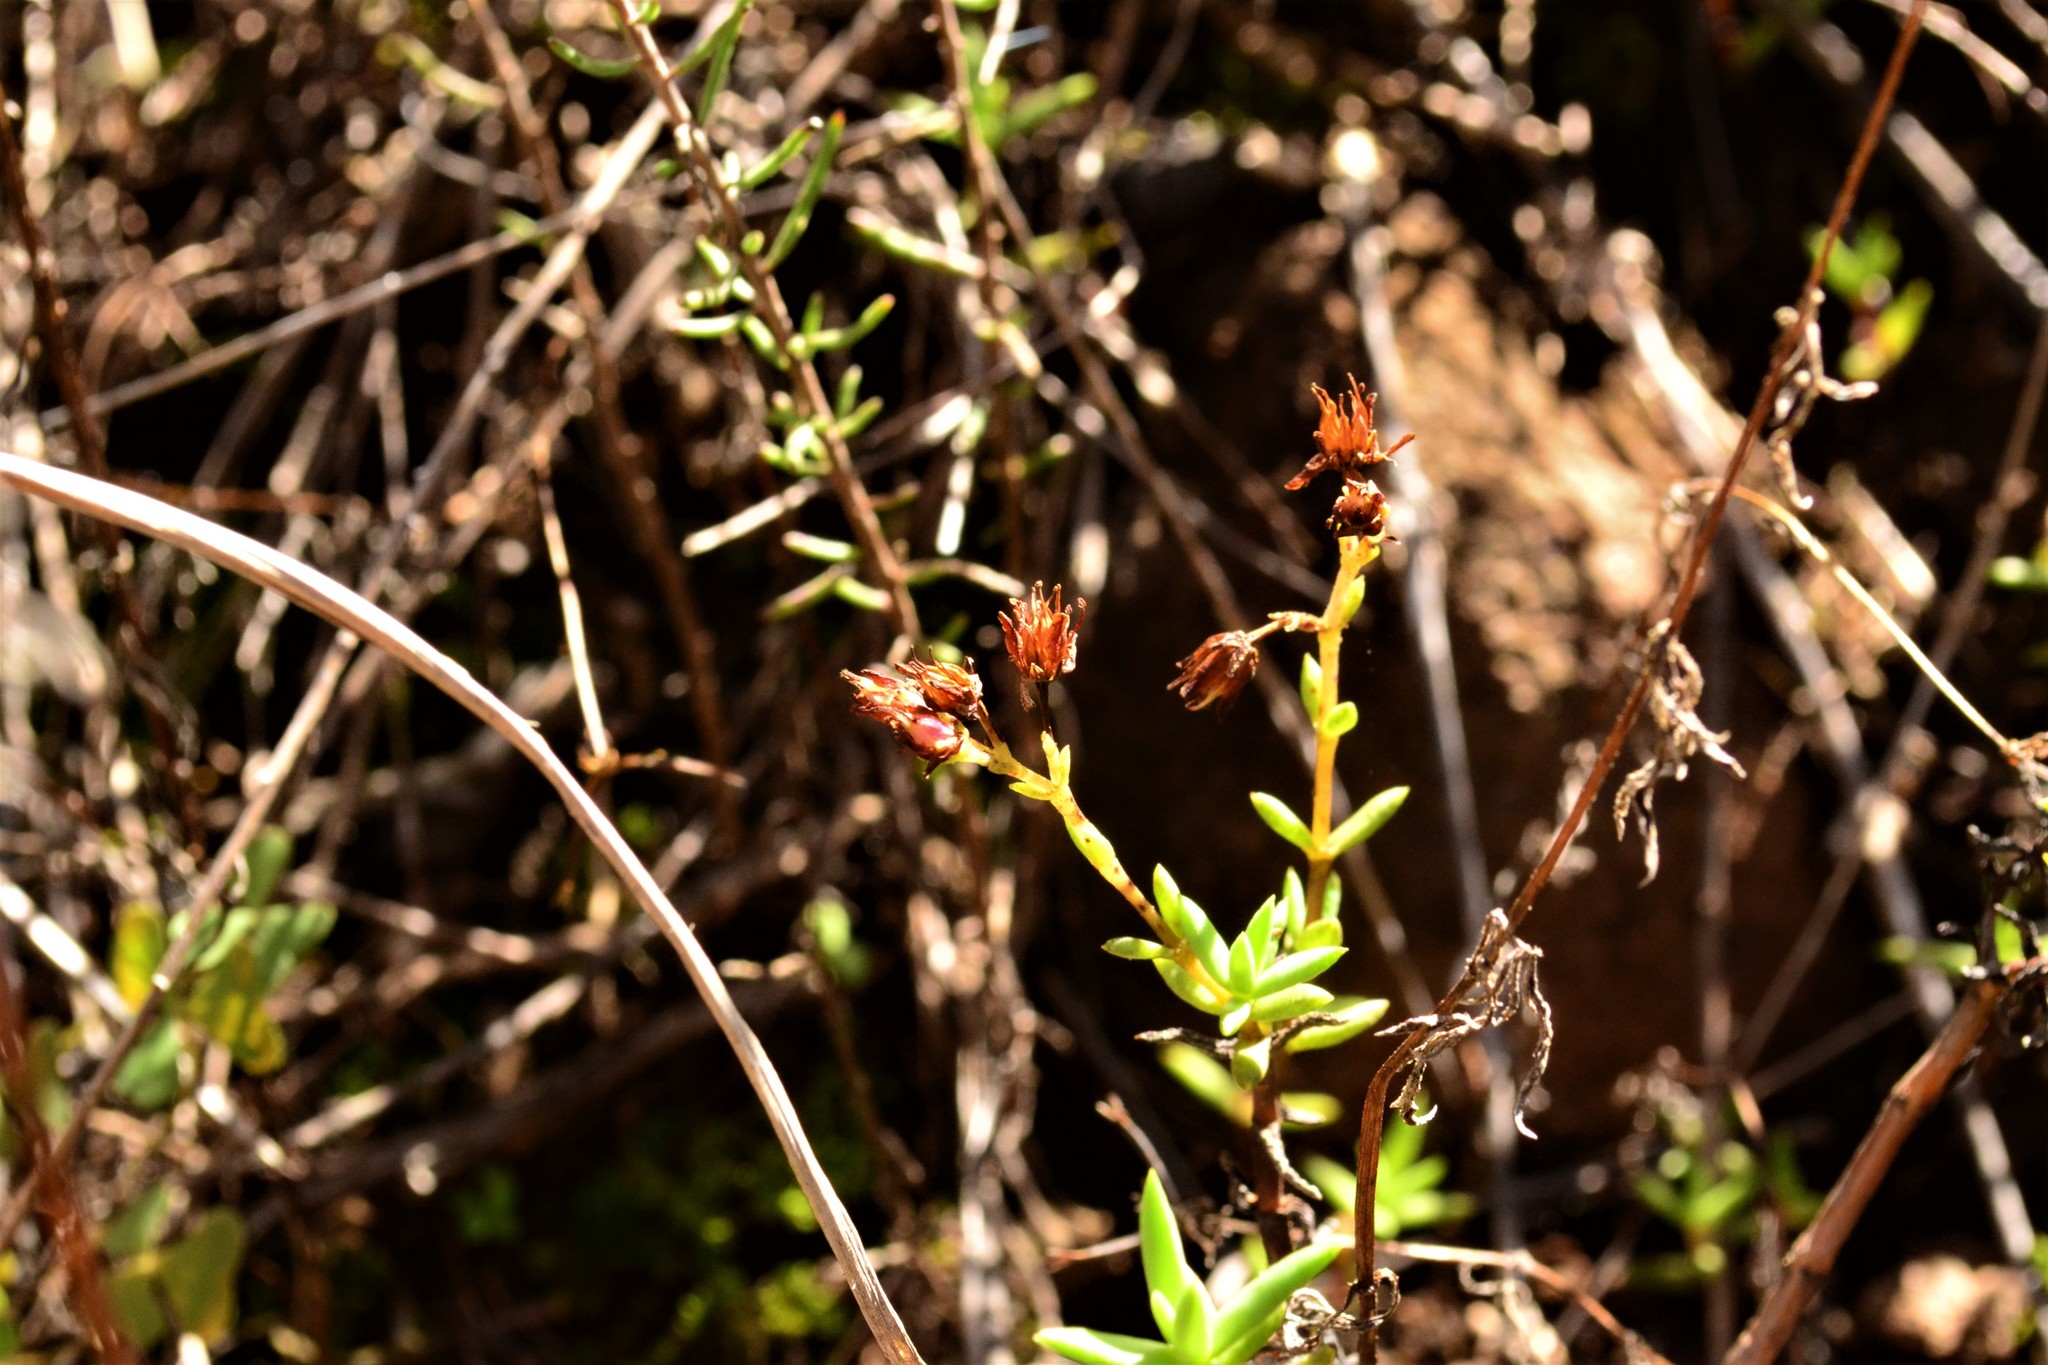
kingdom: Plantae
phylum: Tracheophyta
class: Magnoliopsida
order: Saxifragales
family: Crassulaceae
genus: Crassula
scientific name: Crassula dependens
